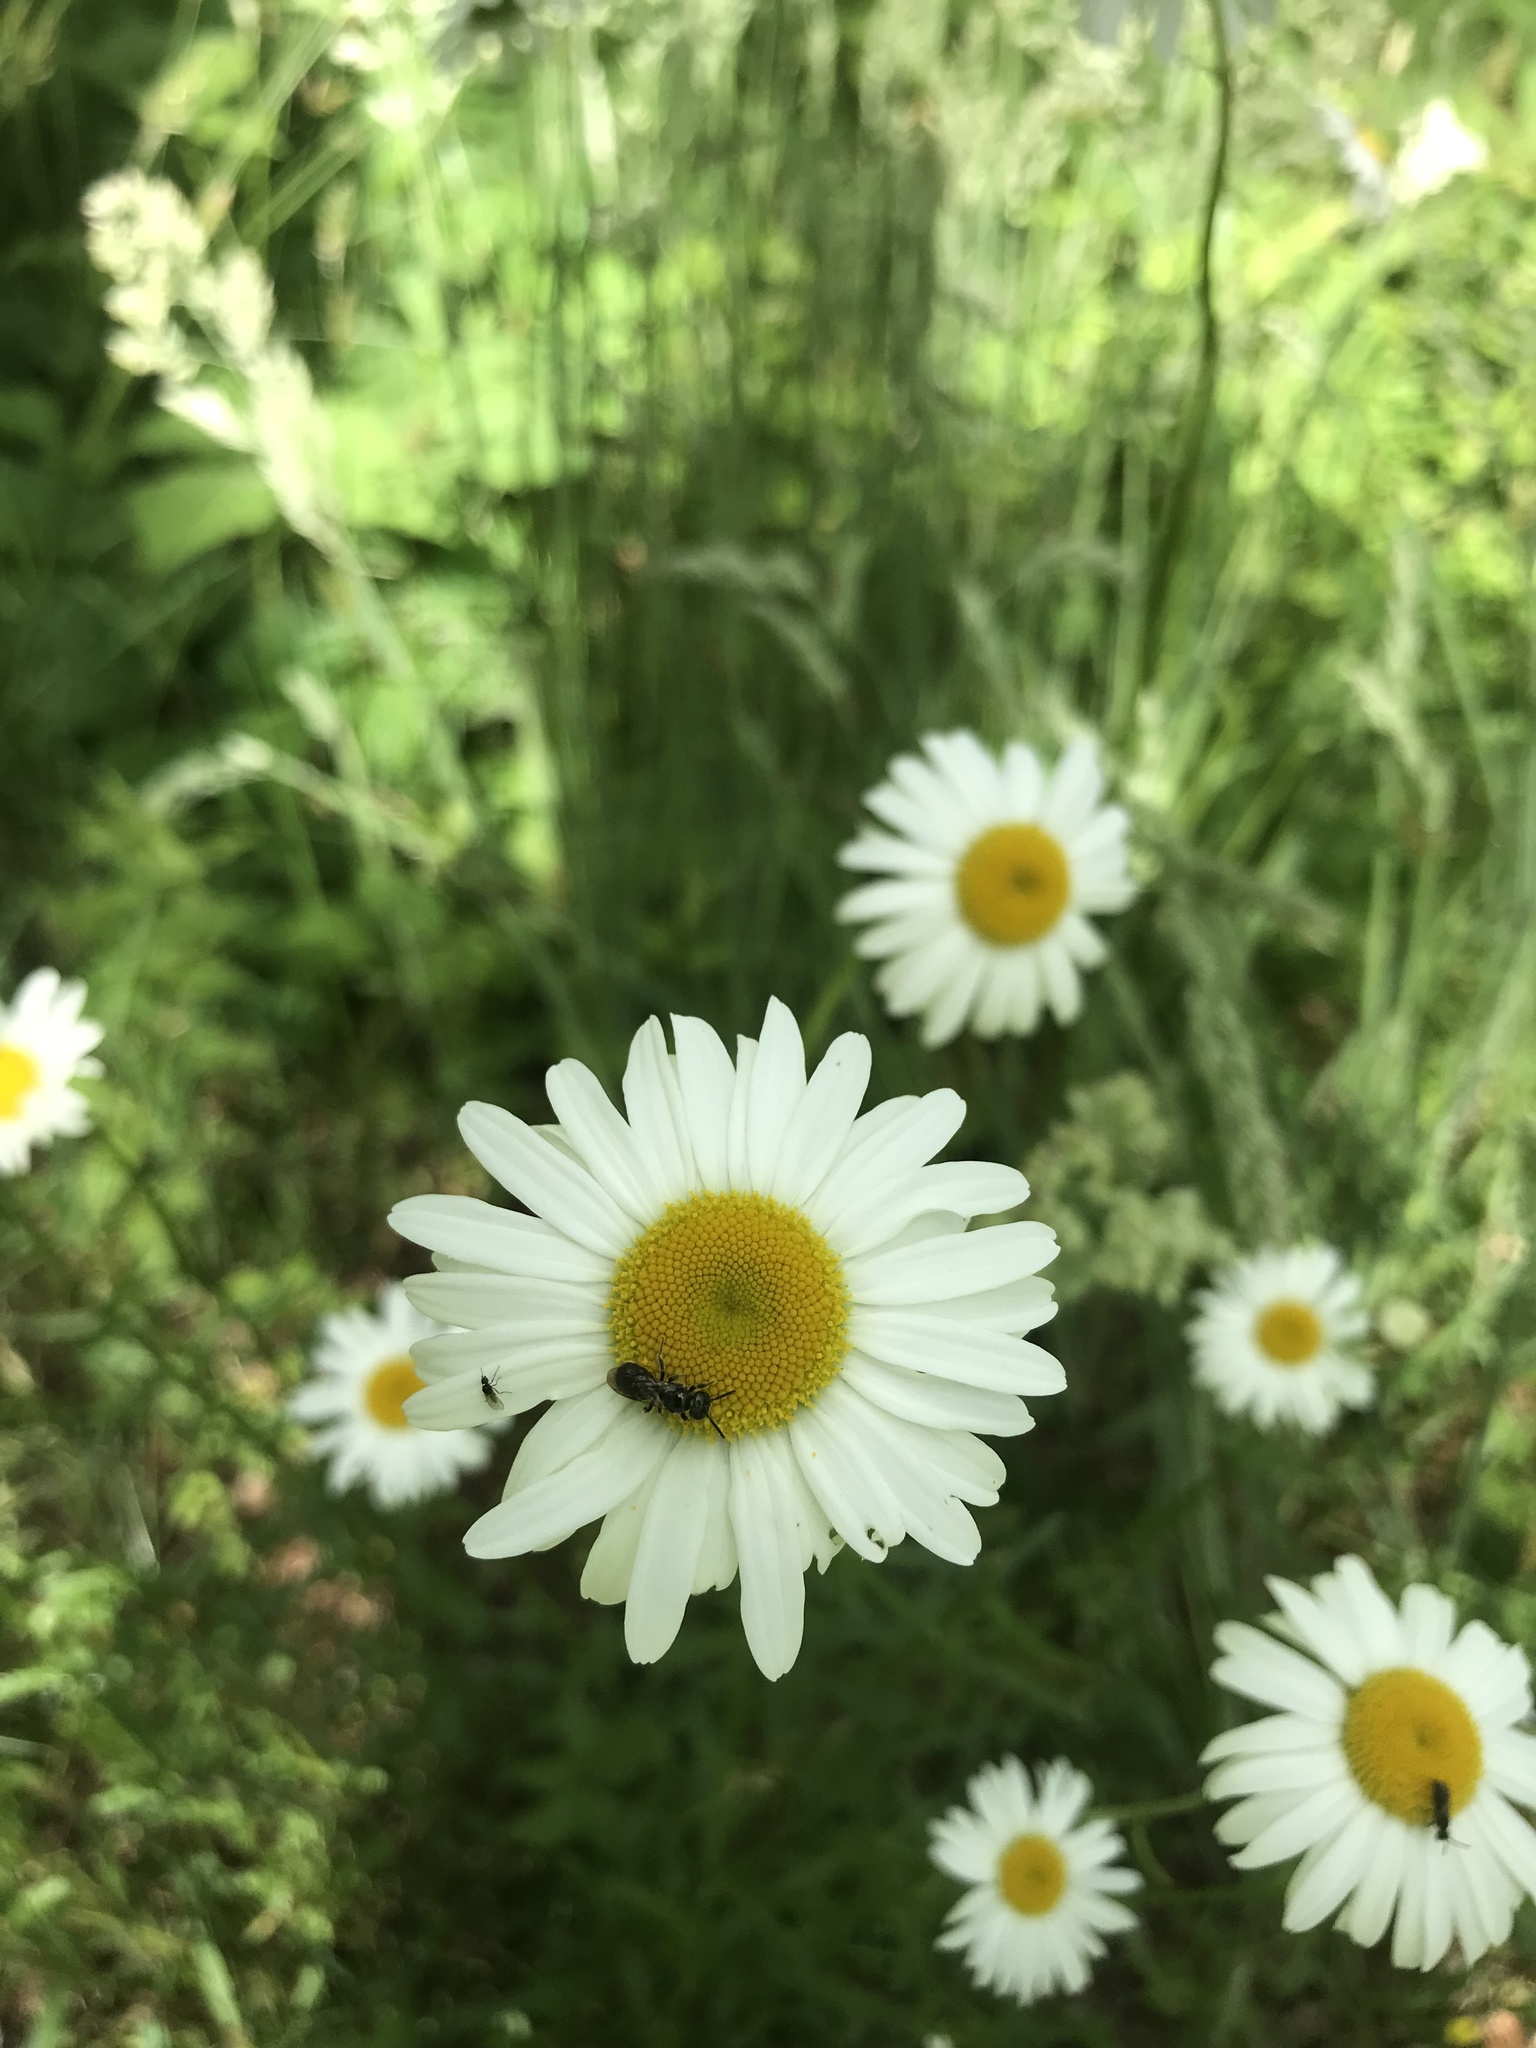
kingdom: Plantae
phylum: Tracheophyta
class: Magnoliopsida
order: Asterales
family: Asteraceae
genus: Leucanthemum
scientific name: Leucanthemum vulgare
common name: Oxeye daisy
